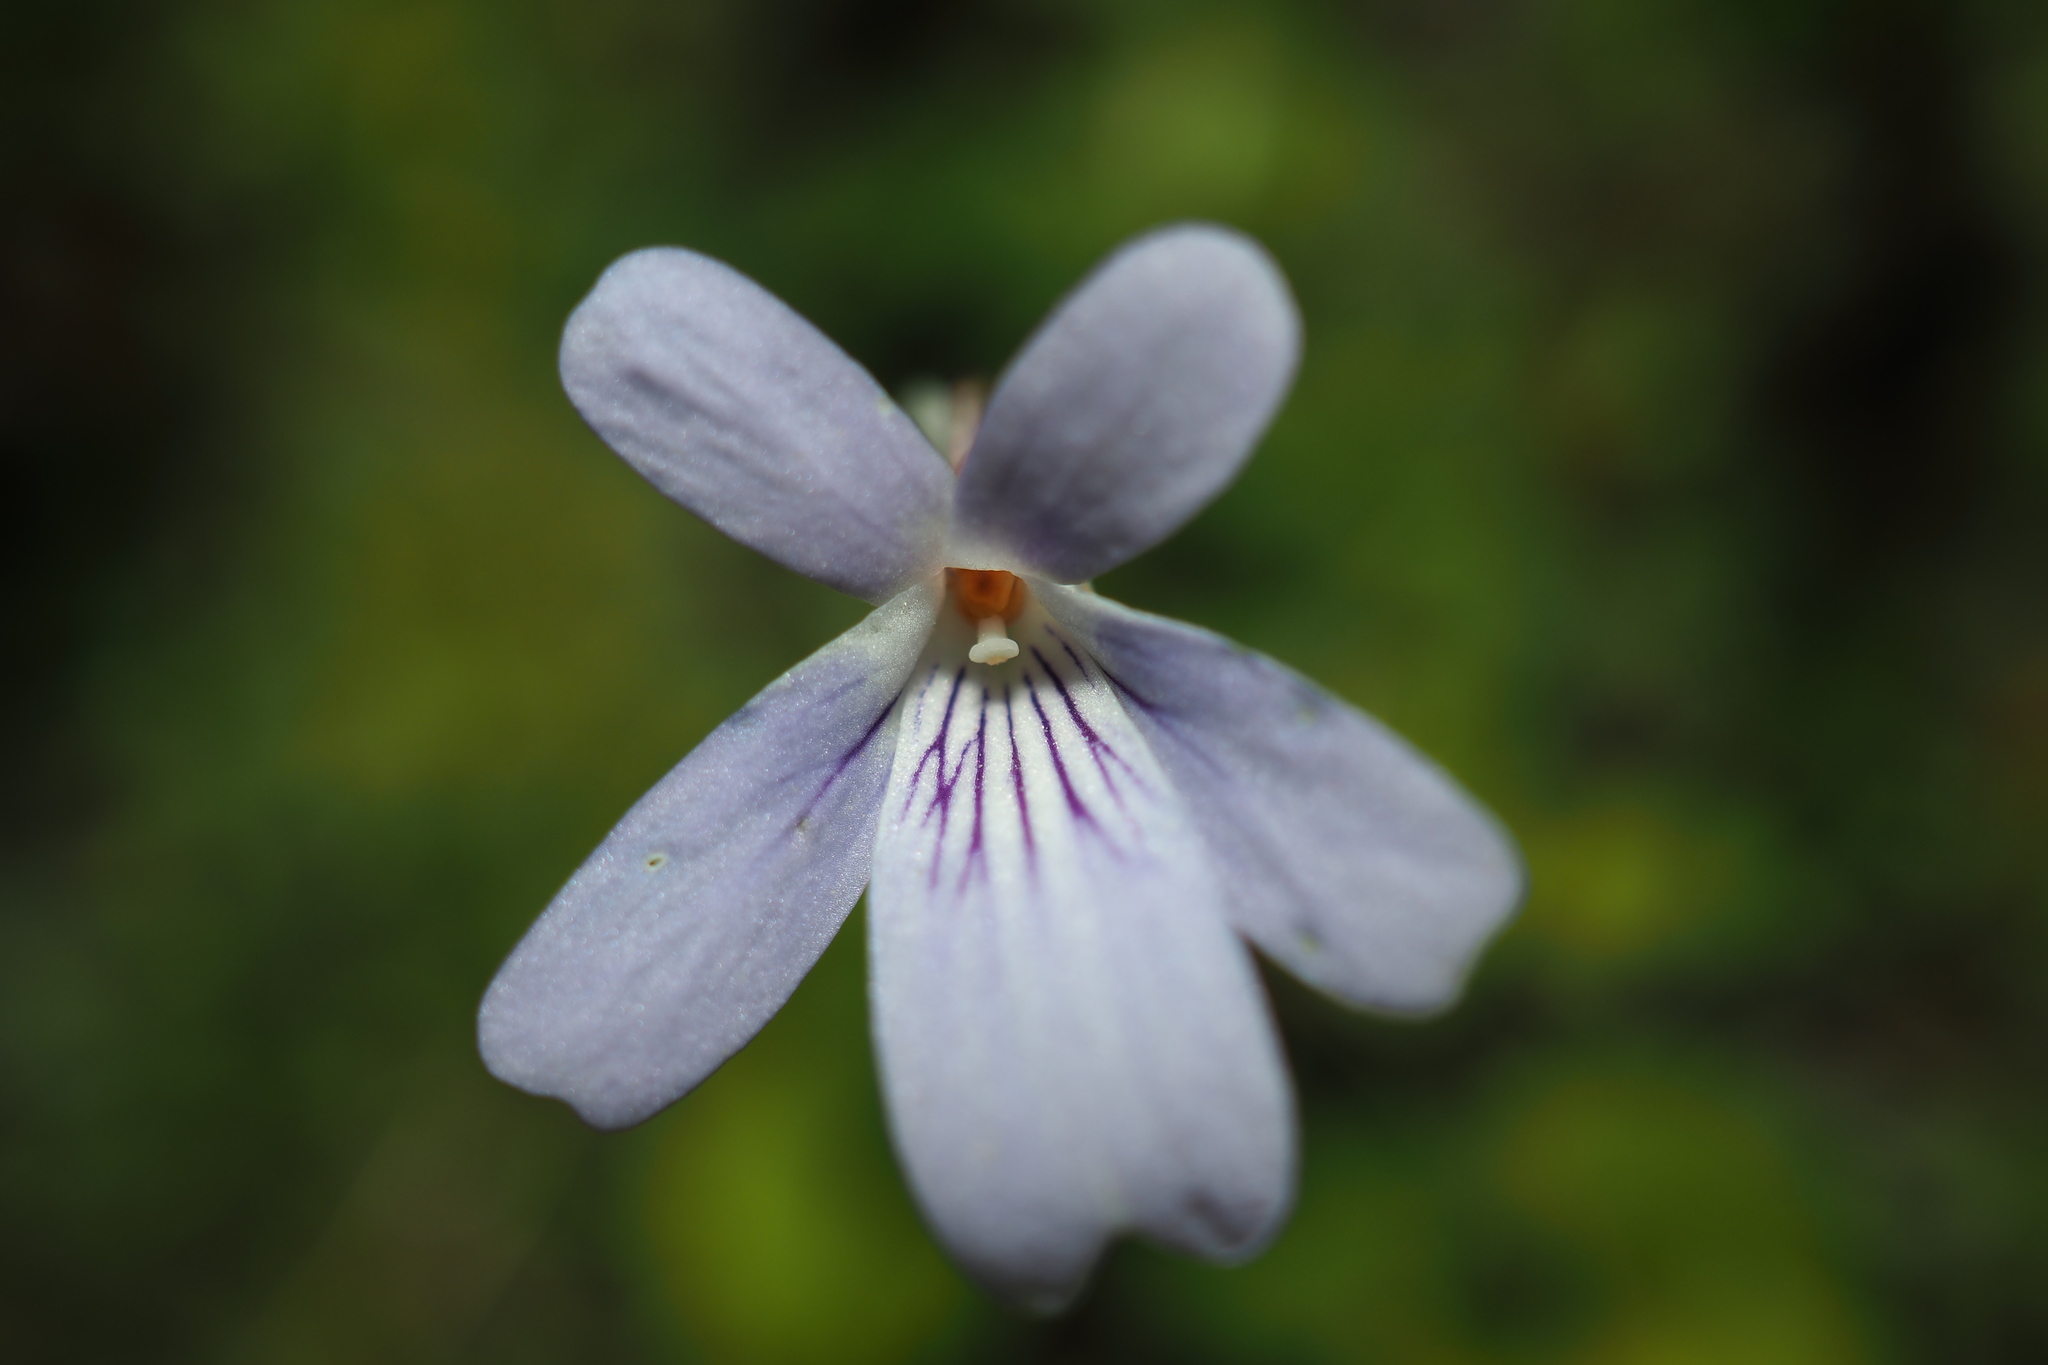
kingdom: Plantae
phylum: Tracheophyta
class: Magnoliopsida
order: Malpighiales
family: Violaceae
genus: Viola
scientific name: Viola formosana
